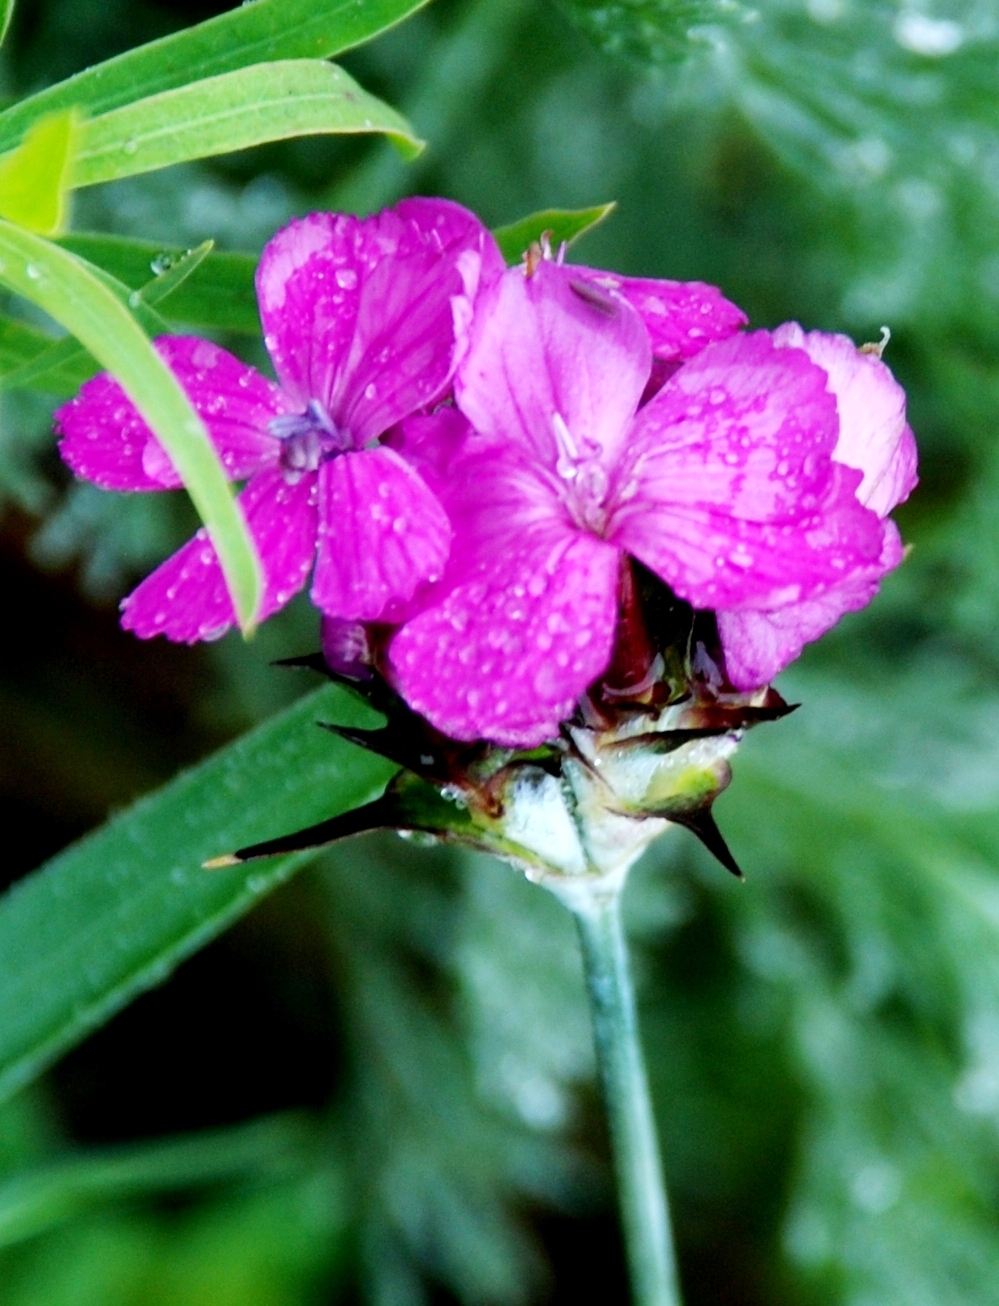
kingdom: Plantae
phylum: Tracheophyta
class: Magnoliopsida
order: Caryophyllales
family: Caryophyllaceae
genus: Dianthus
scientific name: Dianthus capitatus
